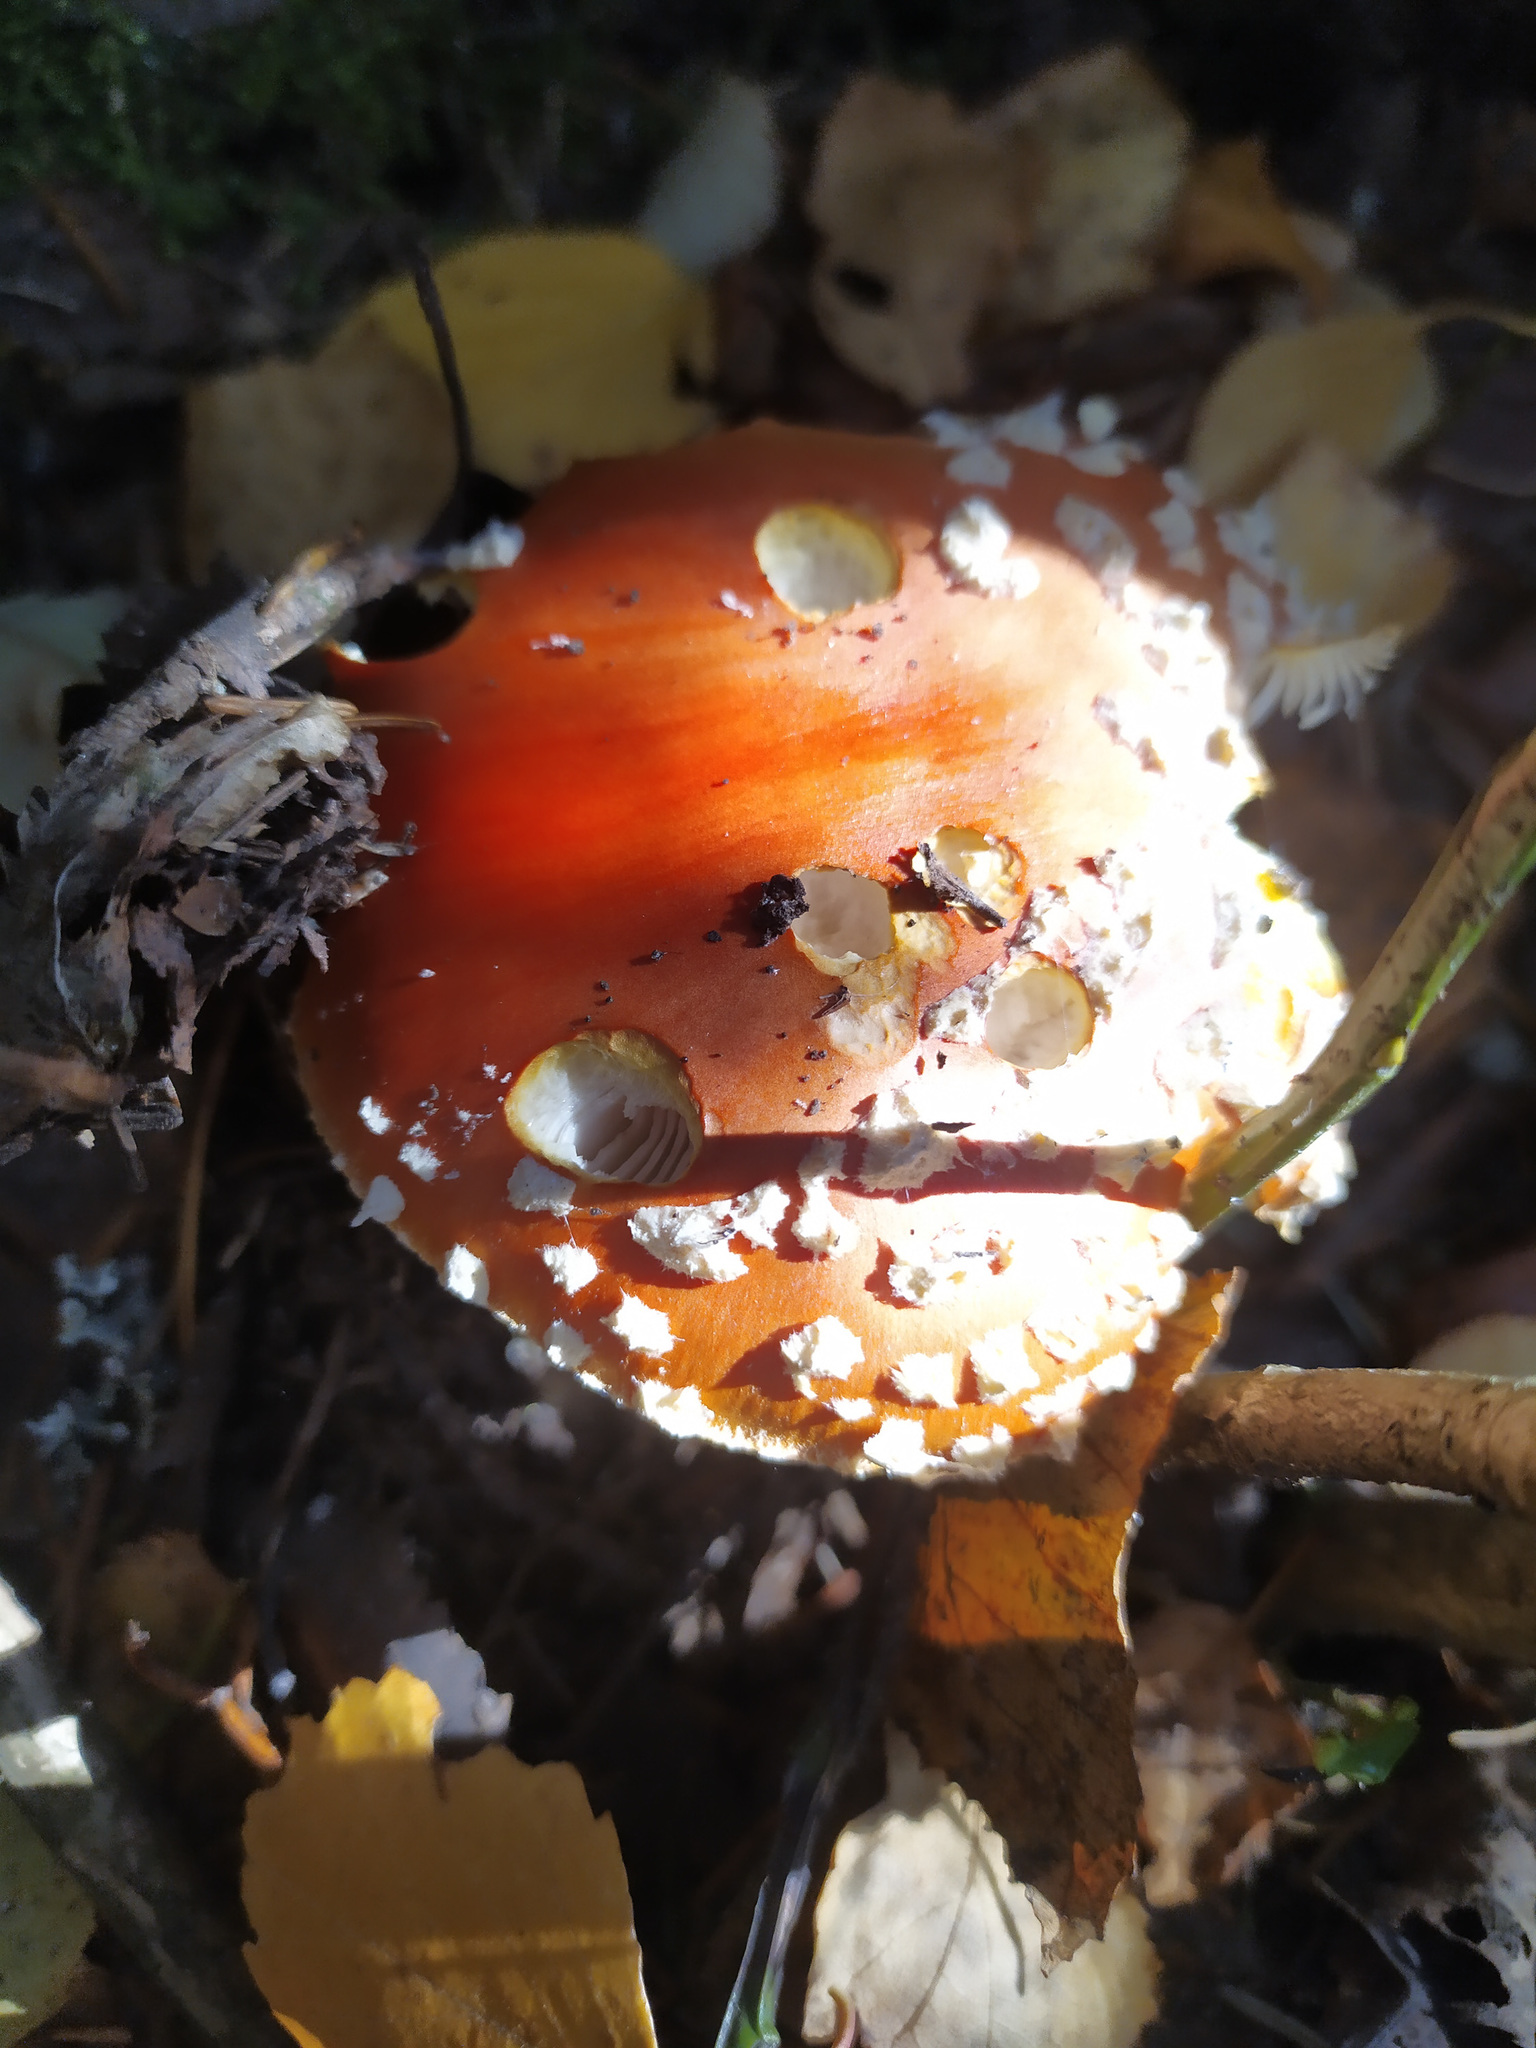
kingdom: Fungi
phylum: Basidiomycota
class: Agaricomycetes
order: Agaricales
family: Amanitaceae
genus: Amanita
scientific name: Amanita muscaria
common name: Fly agaric
